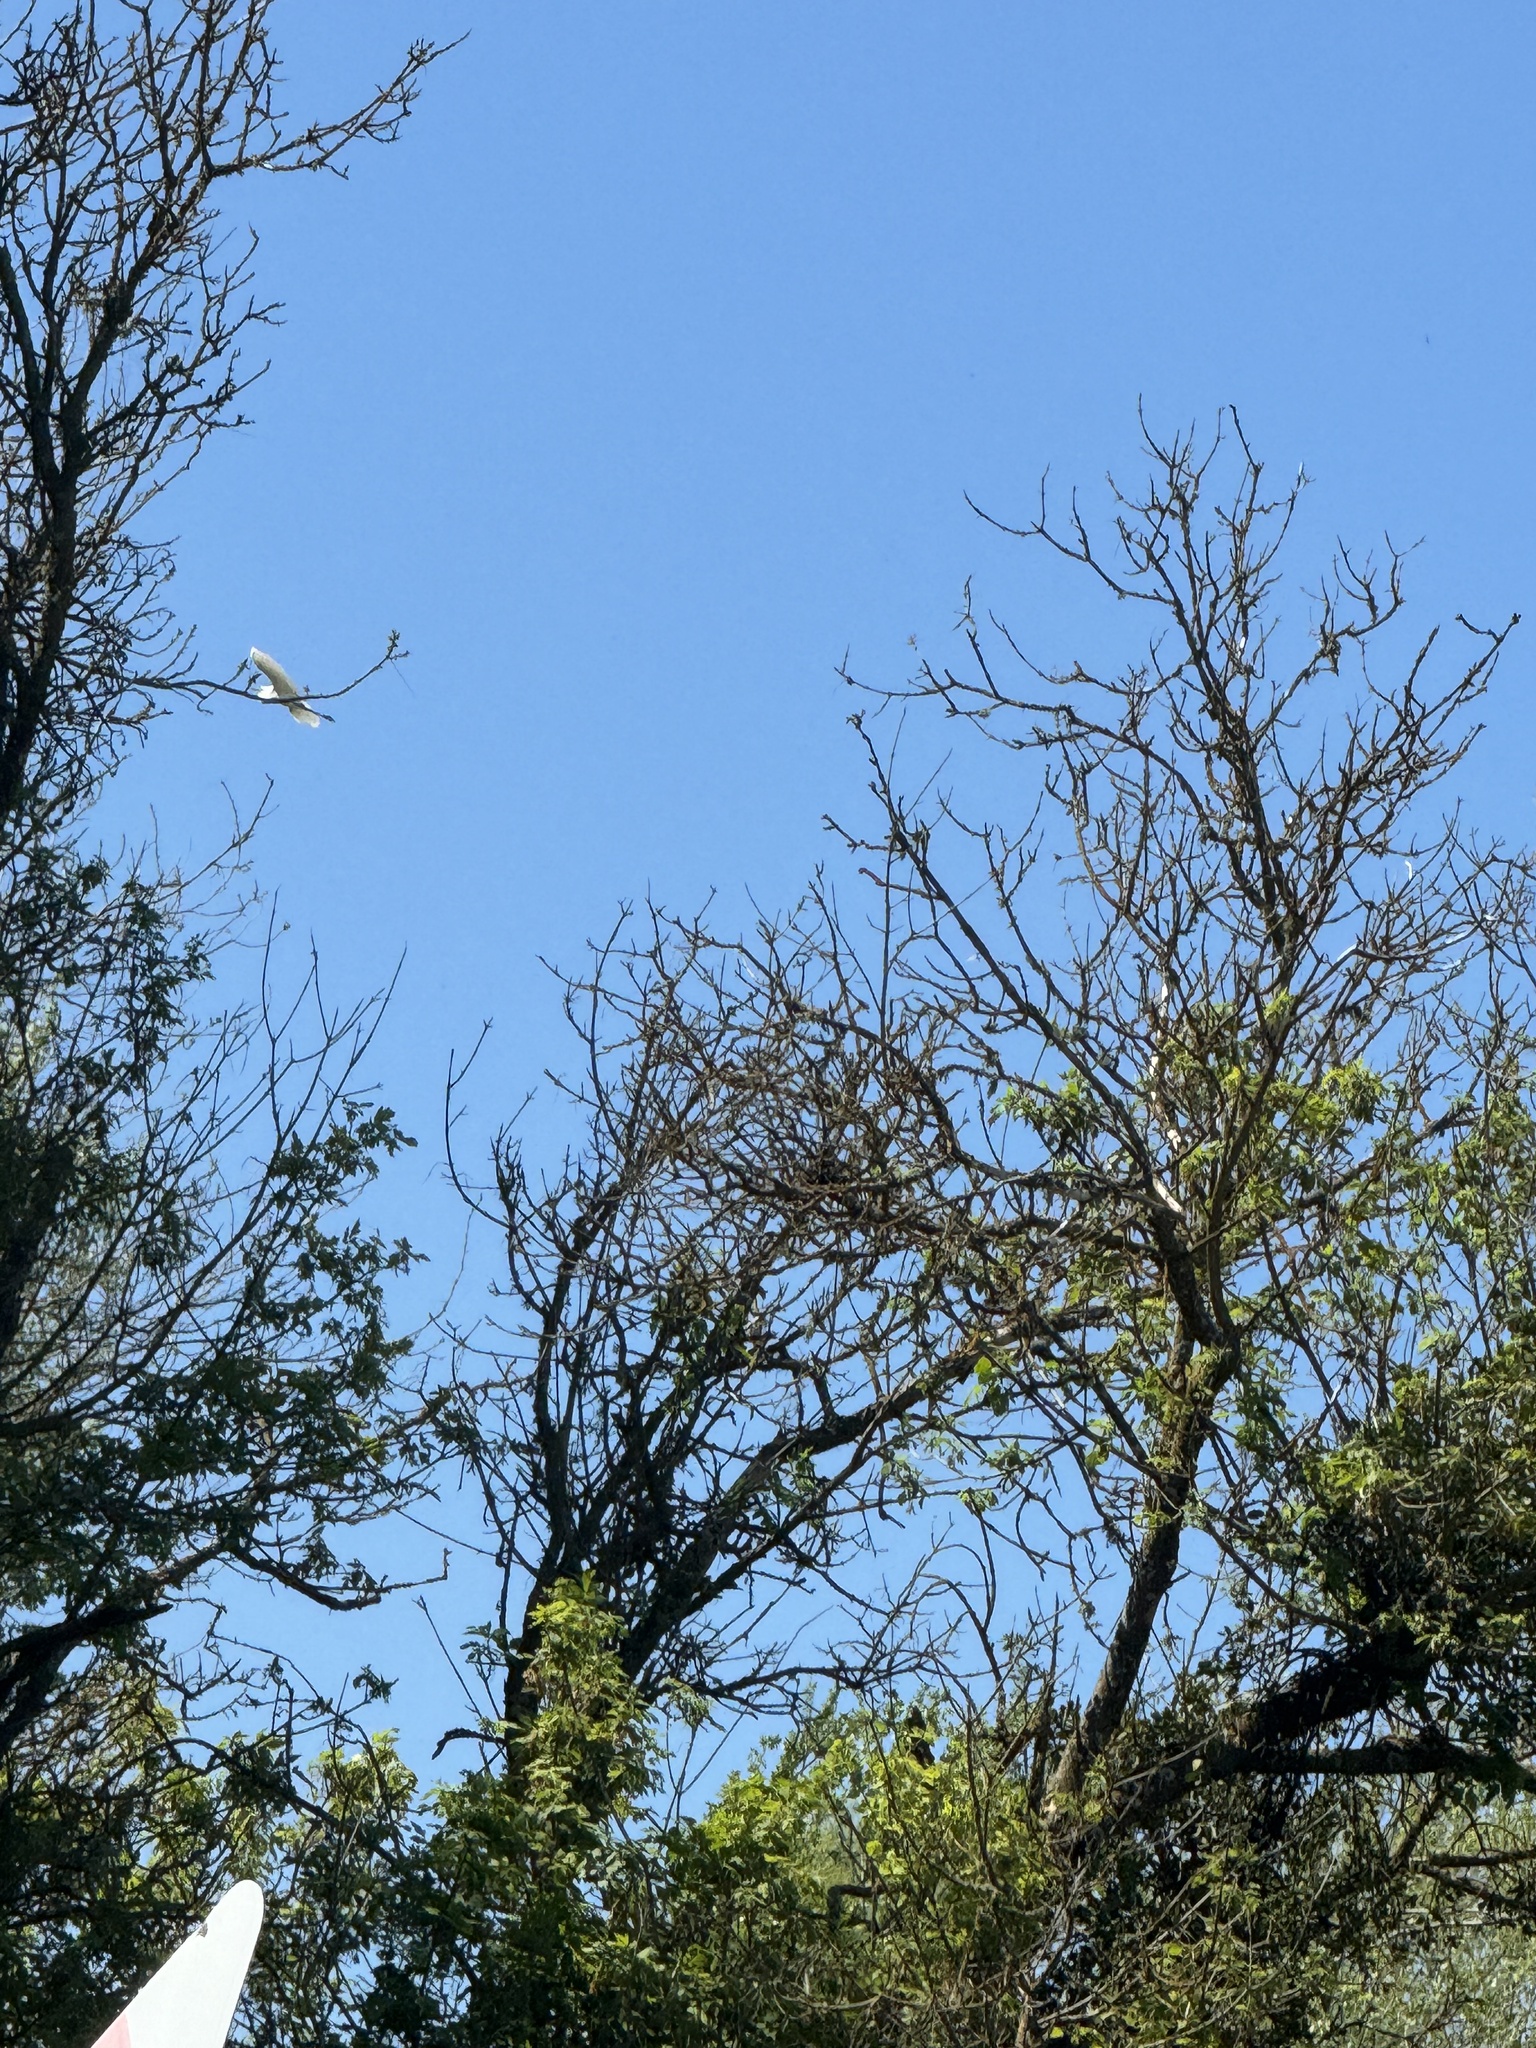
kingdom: Animalia
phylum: Chordata
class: Aves
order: Pelecaniformes
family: Ardeidae
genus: Ardea
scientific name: Ardea alba
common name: Great egret
